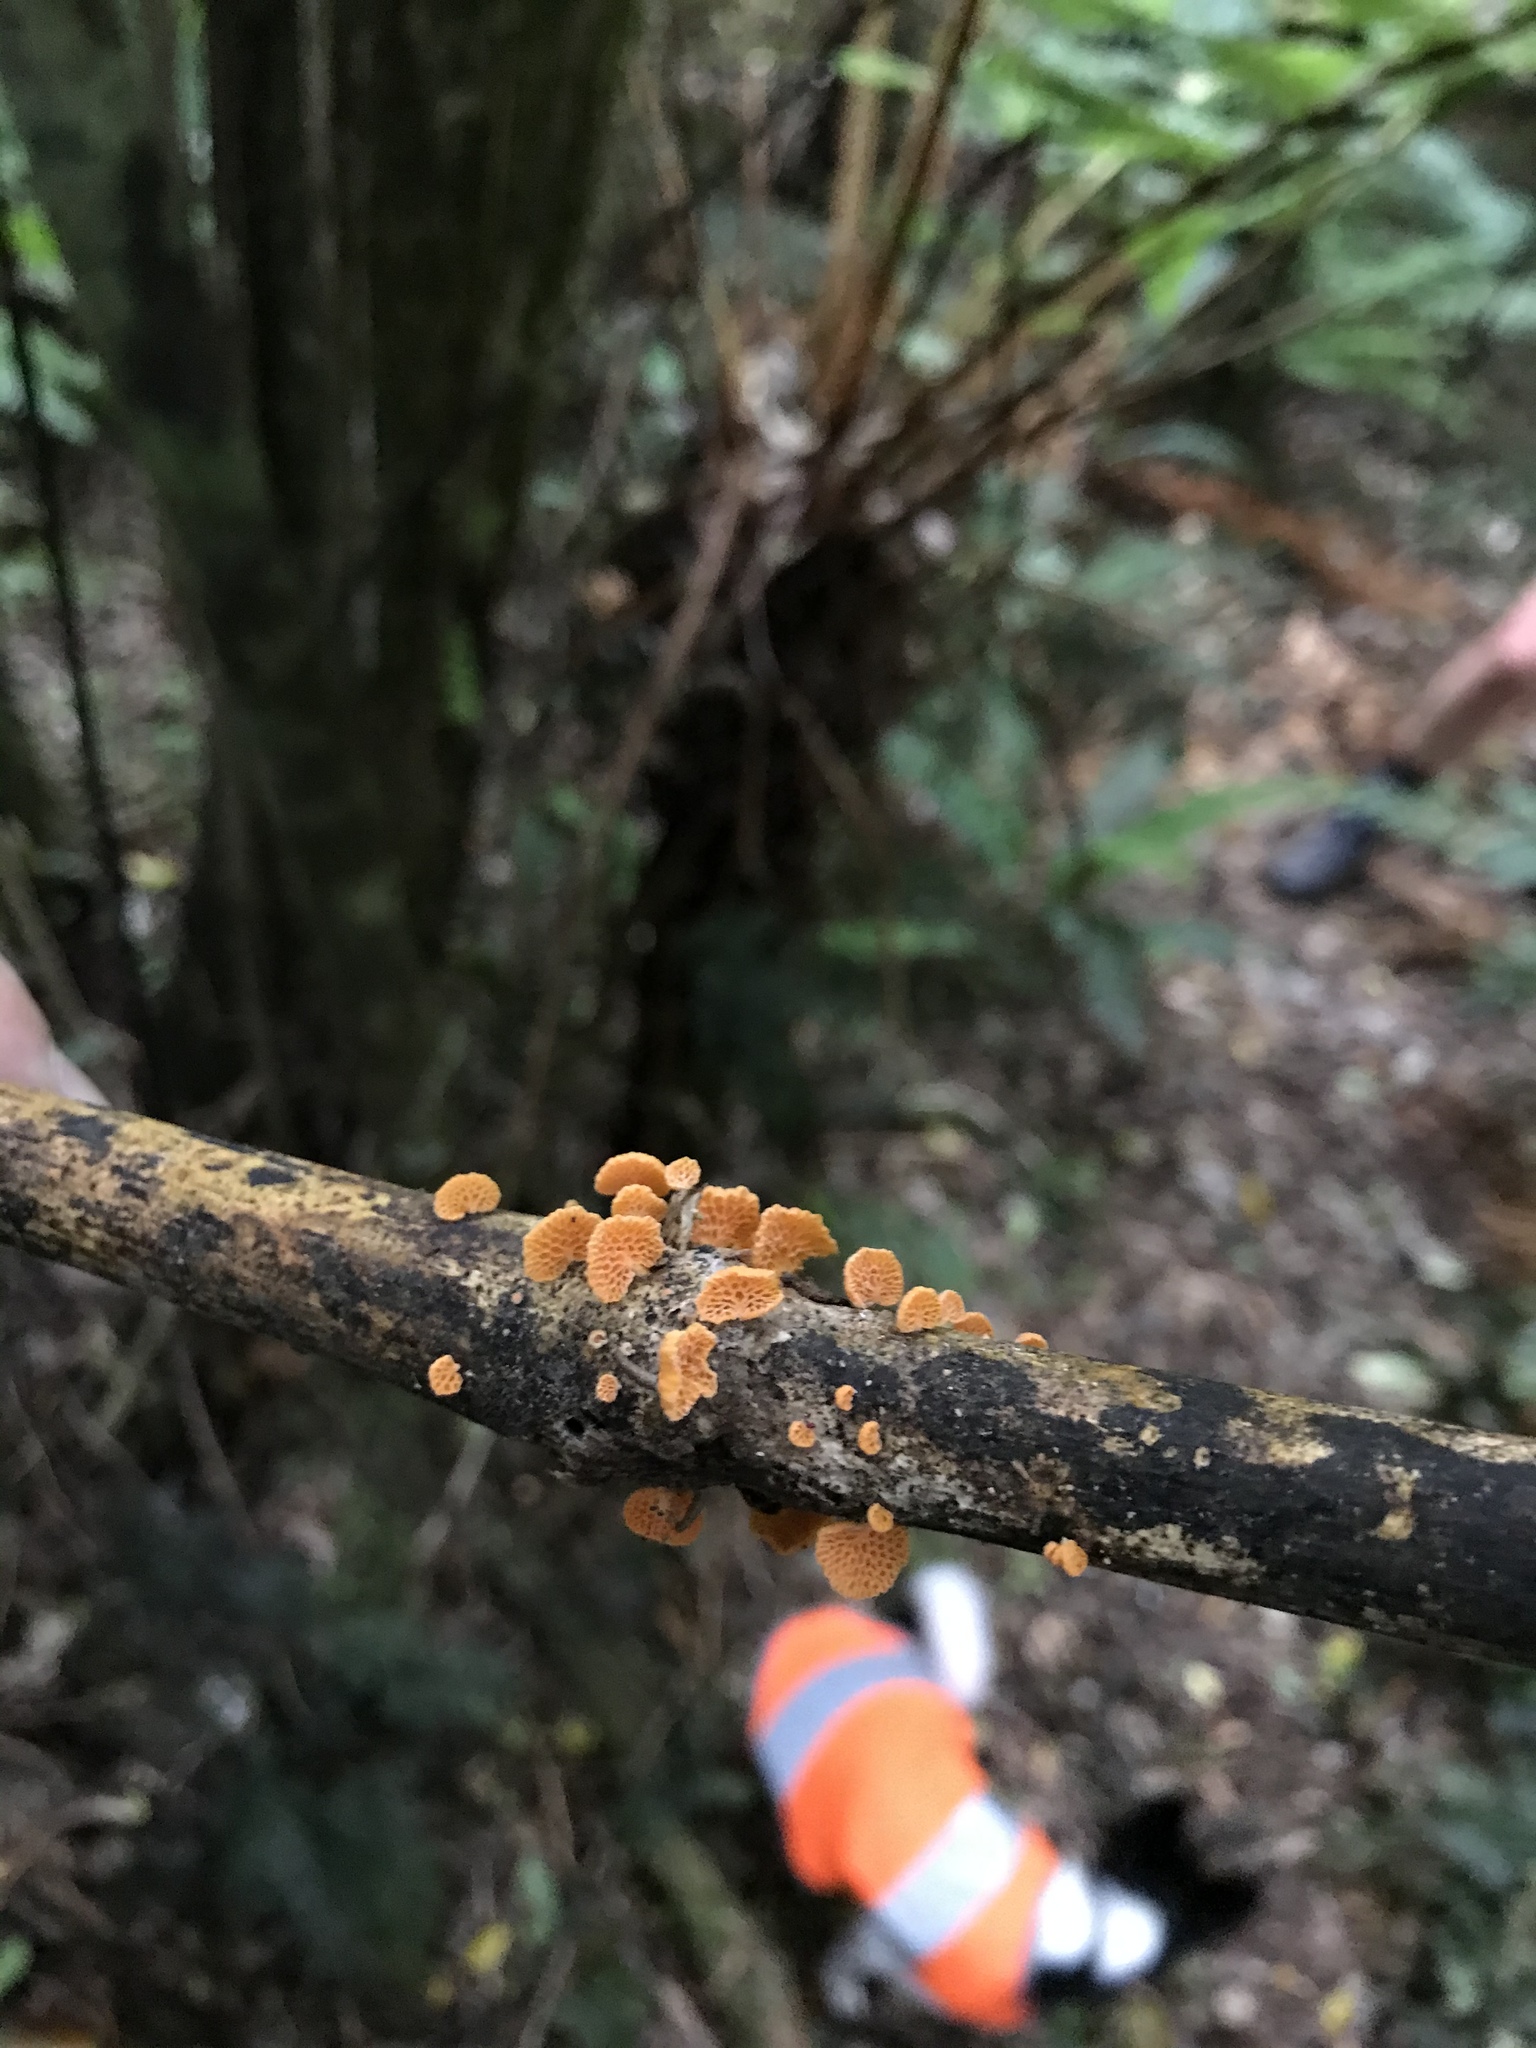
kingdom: Fungi
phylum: Basidiomycota
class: Agaricomycetes
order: Agaricales
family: Mycenaceae
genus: Favolaschia
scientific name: Favolaschia claudopus
